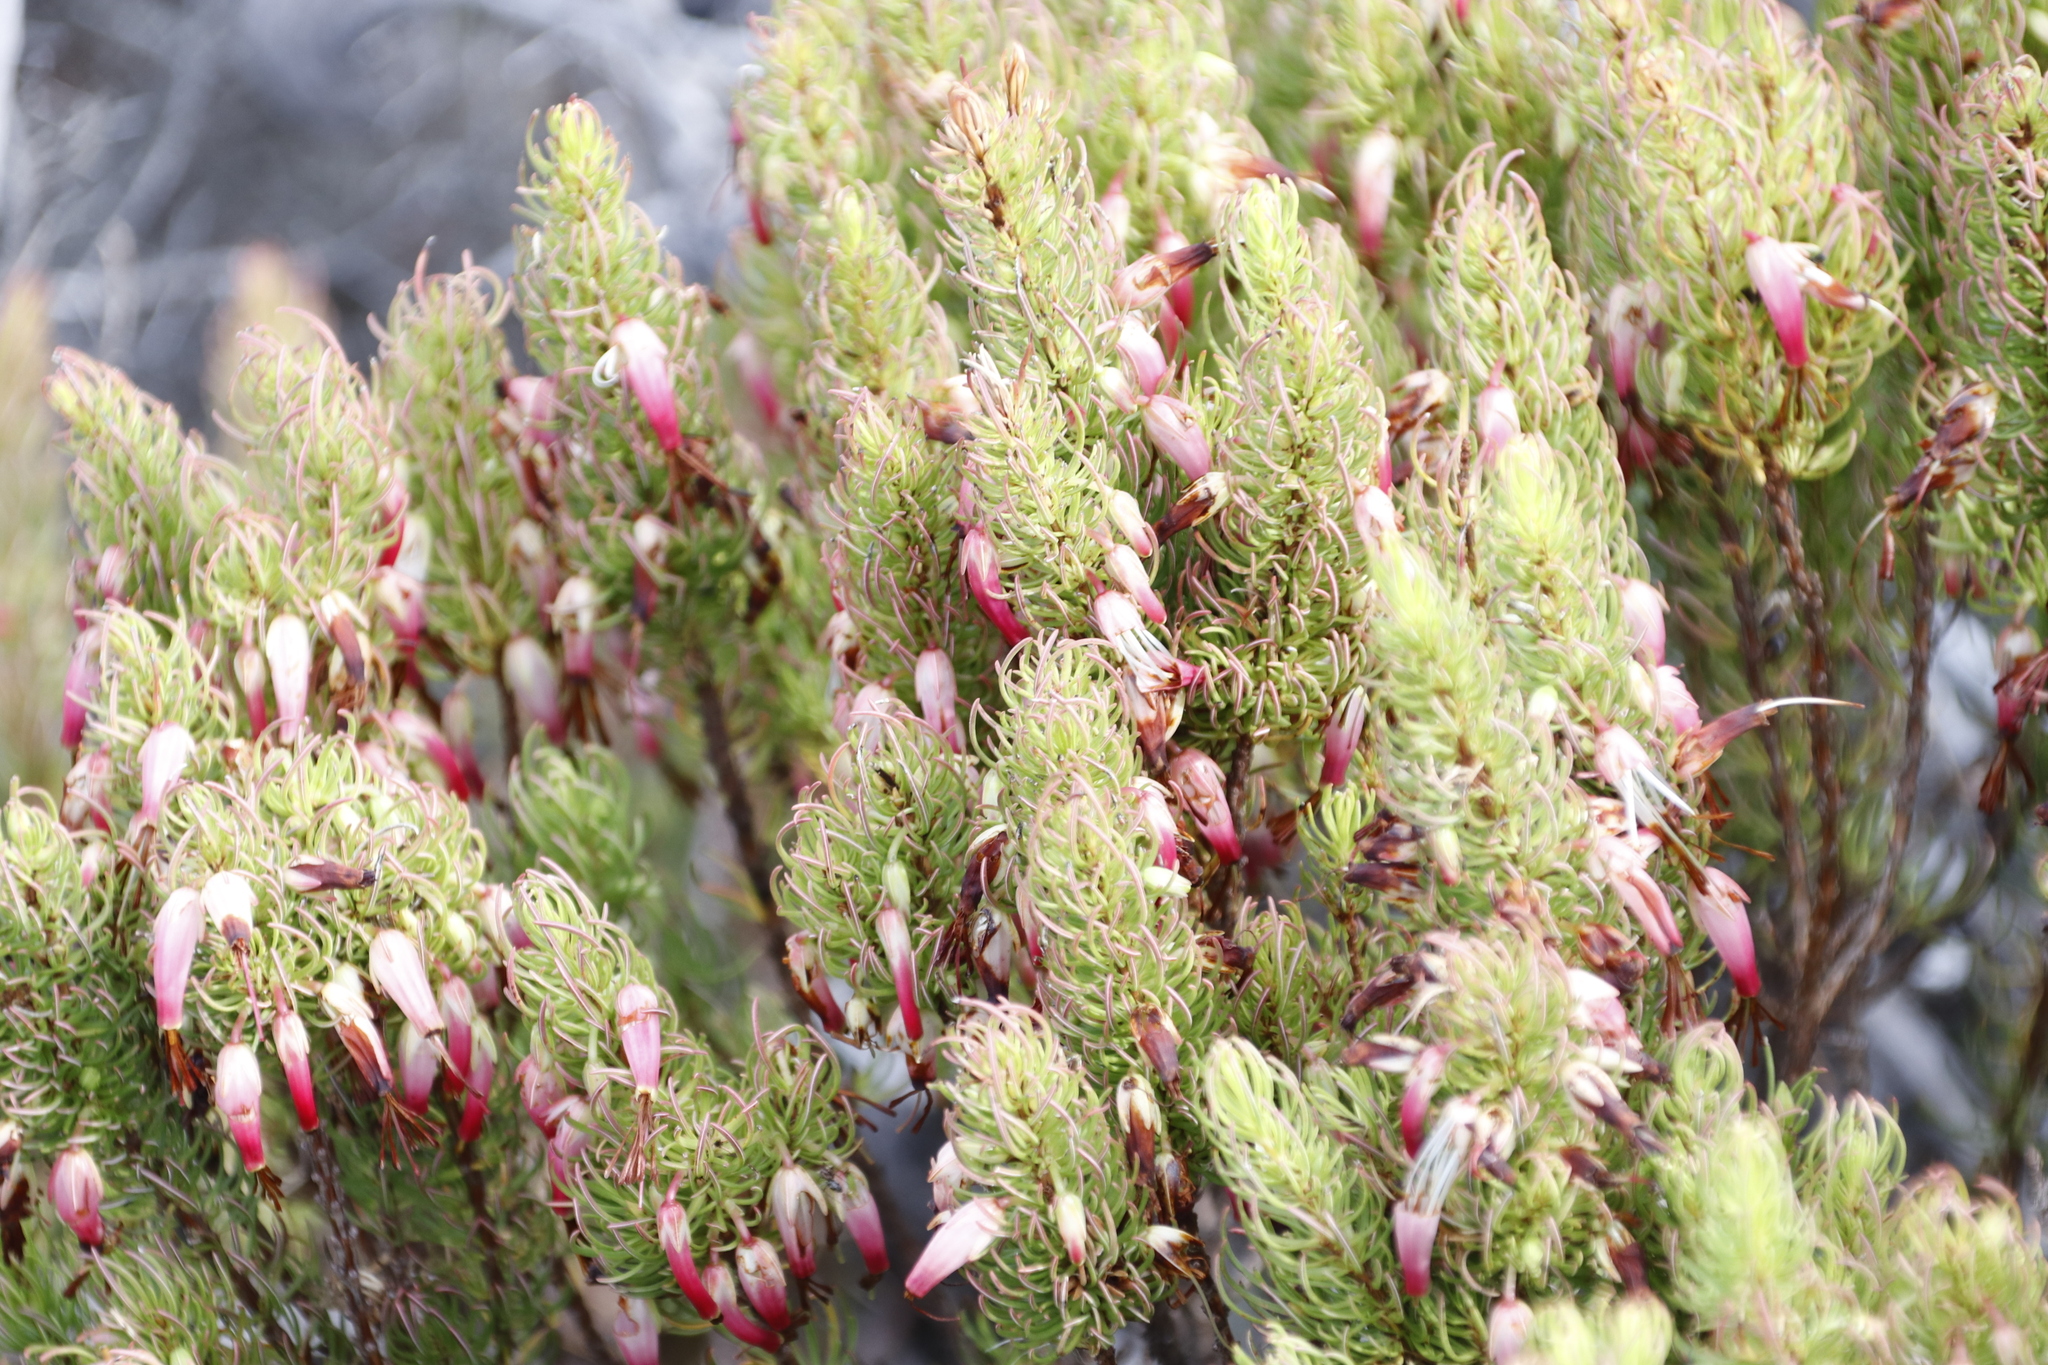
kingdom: Plantae
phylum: Tracheophyta
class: Magnoliopsida
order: Ericales
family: Ericaceae
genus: Erica
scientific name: Erica plukenetii
